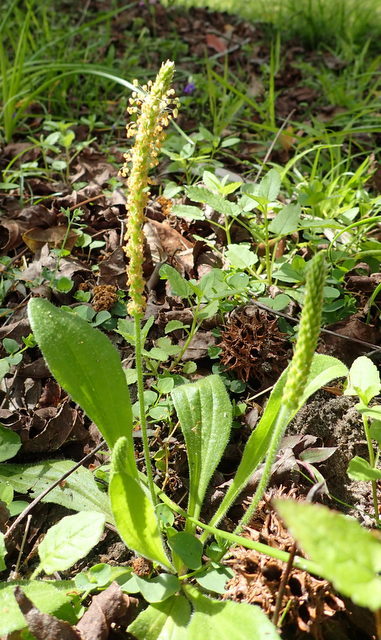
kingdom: Plantae
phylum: Tracheophyta
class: Magnoliopsida
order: Lamiales
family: Plantaginaceae
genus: Plantago
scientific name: Plantago virginica
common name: Hoary plantain
